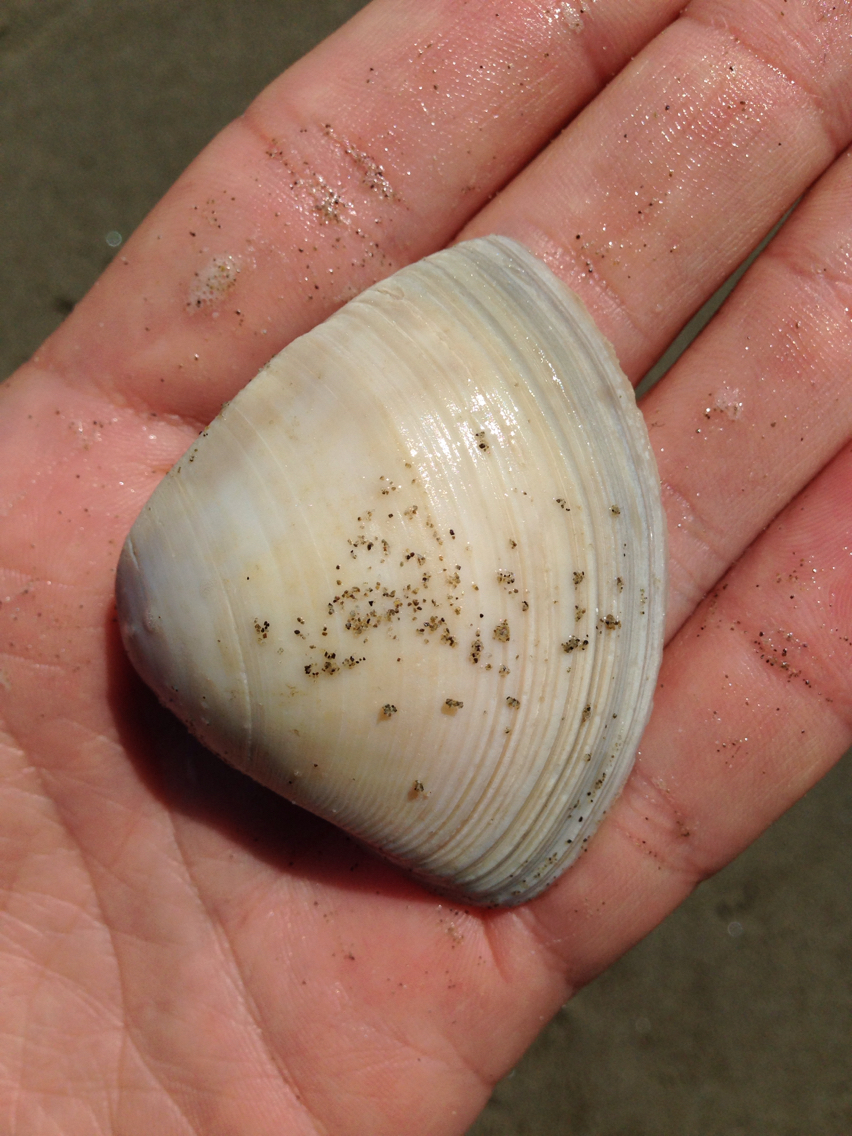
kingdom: Animalia
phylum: Mollusca
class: Bivalvia
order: Venerida
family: Mactridae
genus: Crassula
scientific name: Crassula aequilatera
